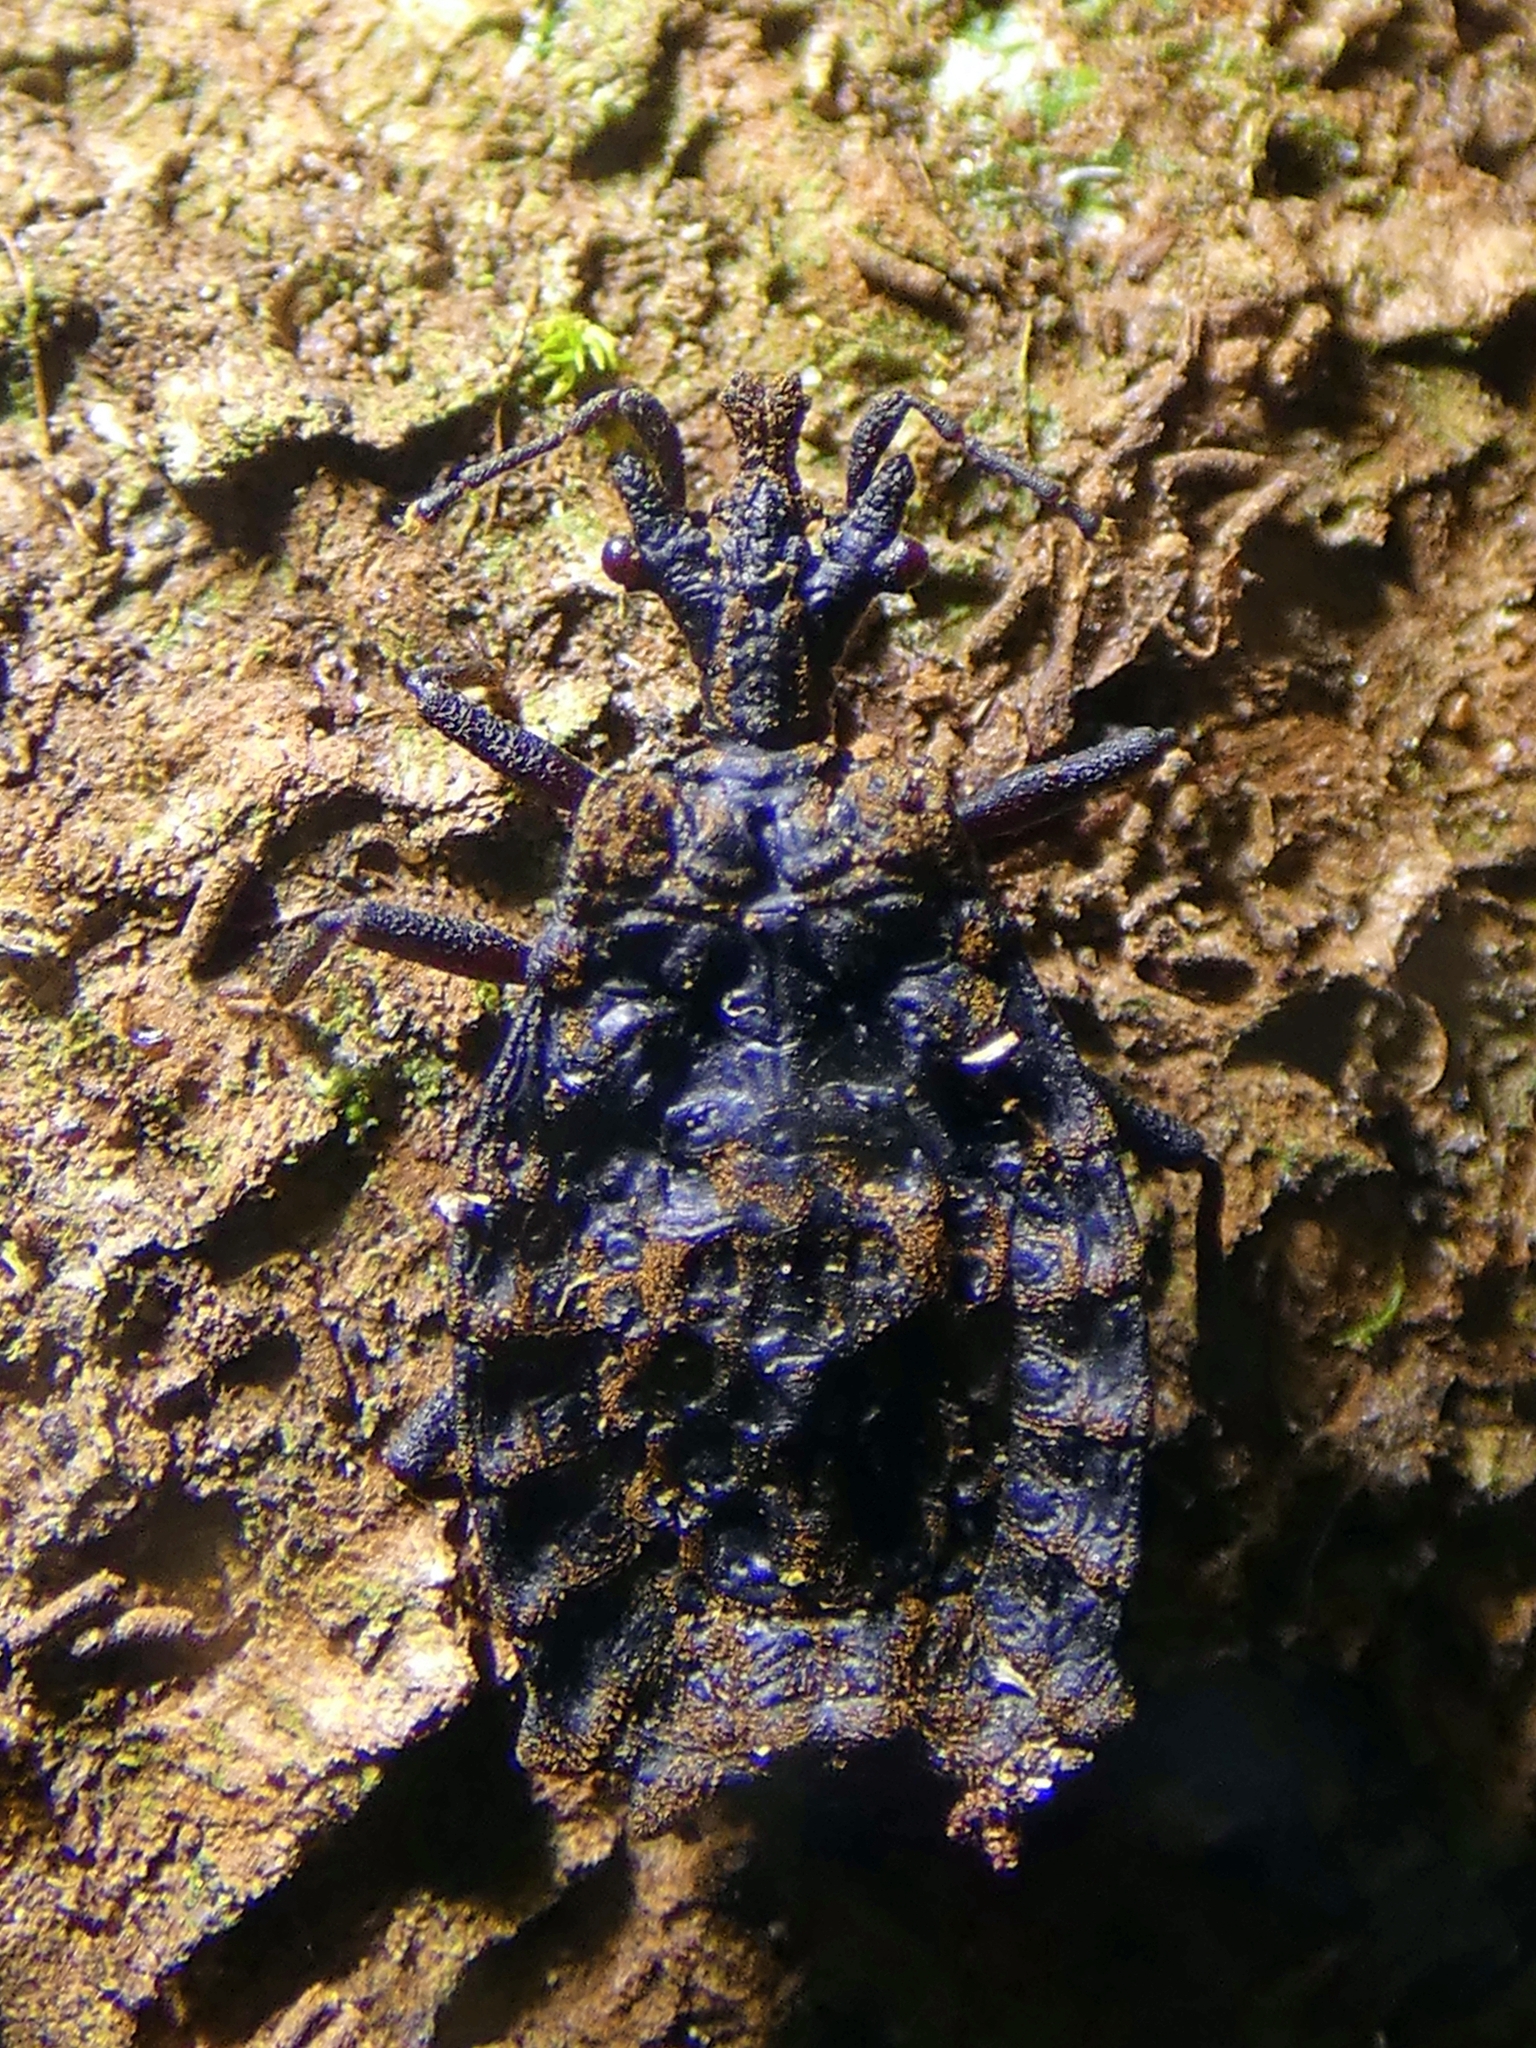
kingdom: Animalia
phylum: Arthropoda
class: Insecta
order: Hemiptera
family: Aradidae
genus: Chelonoderus
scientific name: Chelonoderus
